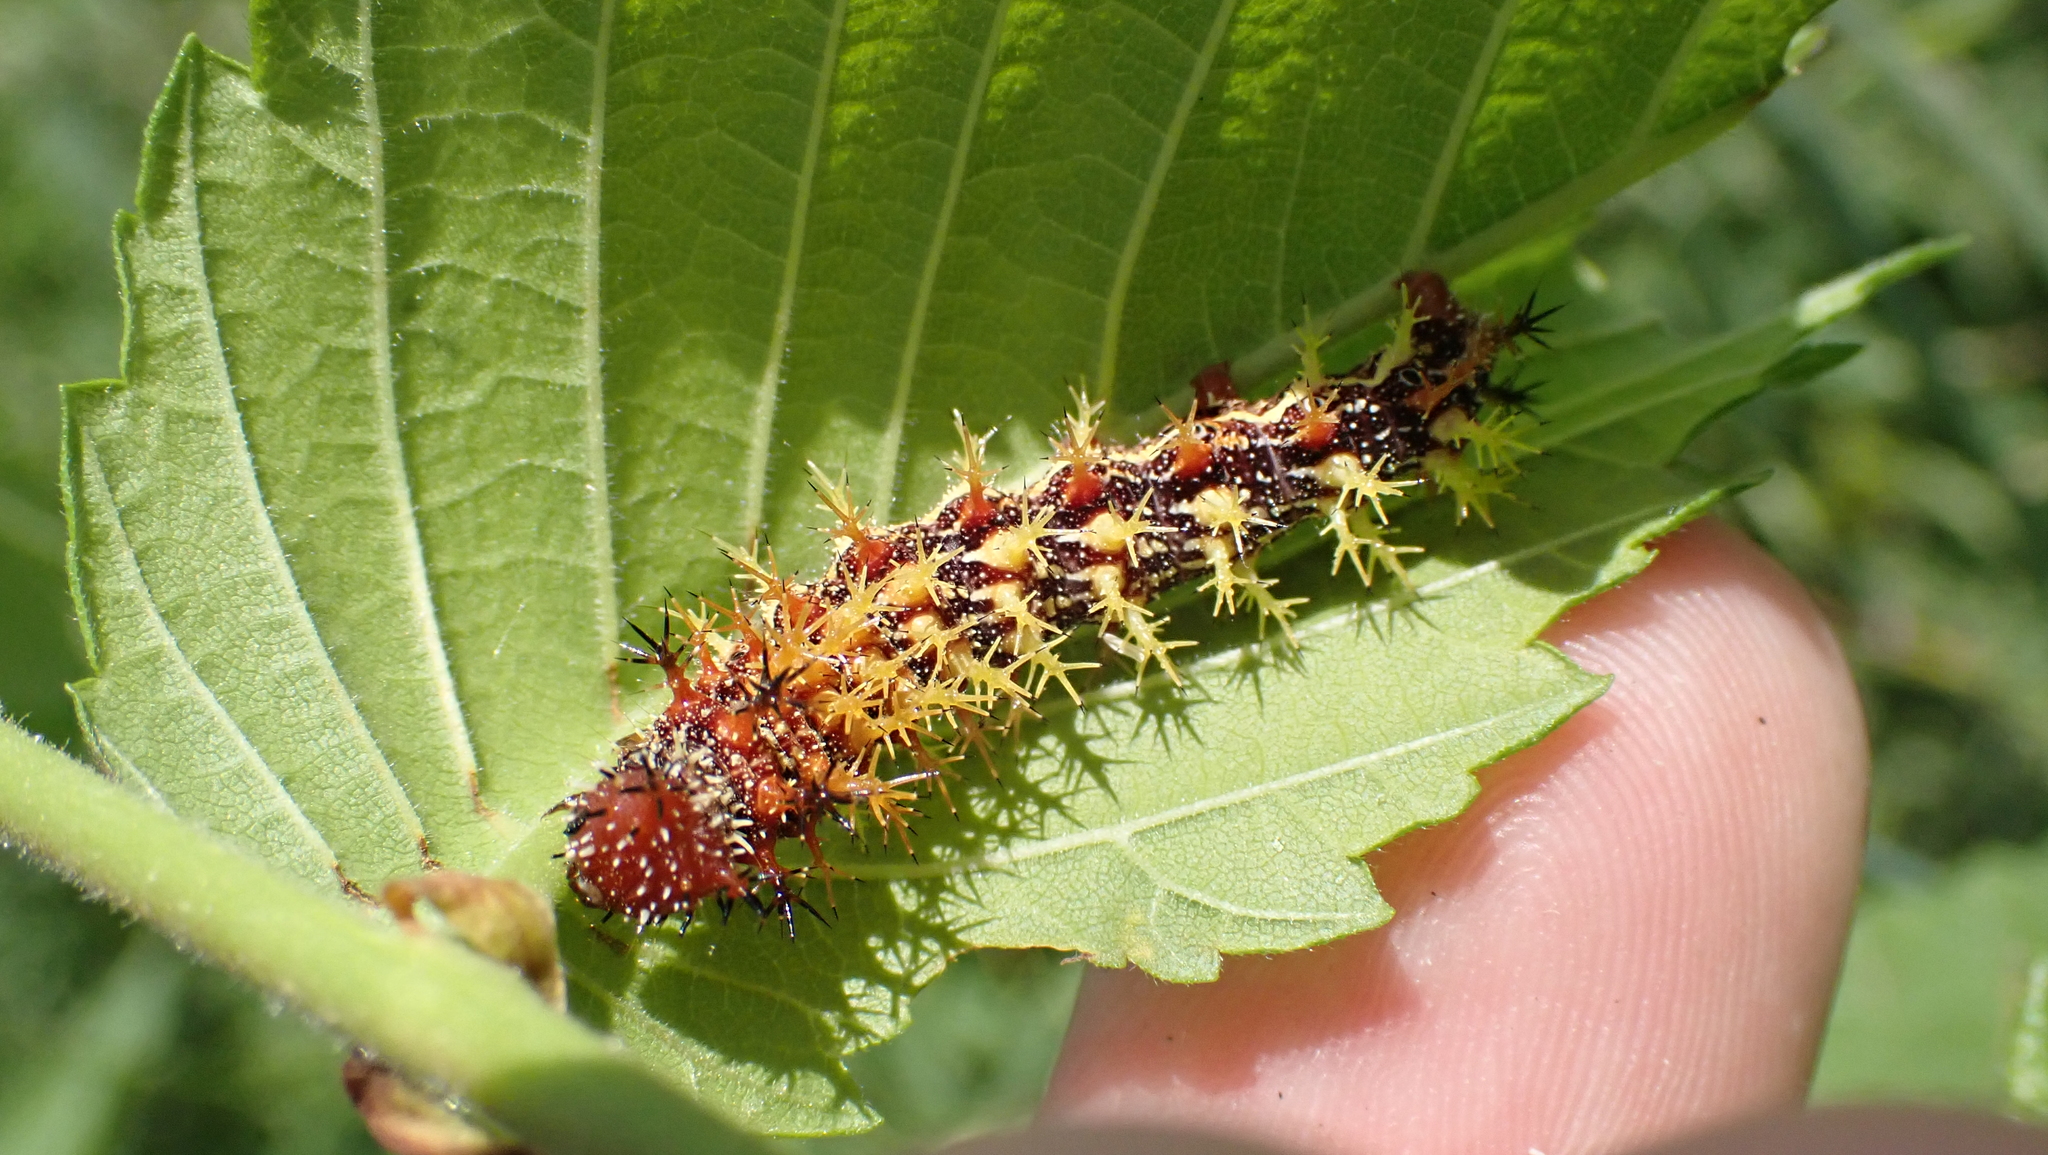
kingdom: Animalia
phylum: Arthropoda
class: Insecta
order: Lepidoptera
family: Nymphalidae
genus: Polygonia
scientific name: Polygonia interrogationis
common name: Question mark
